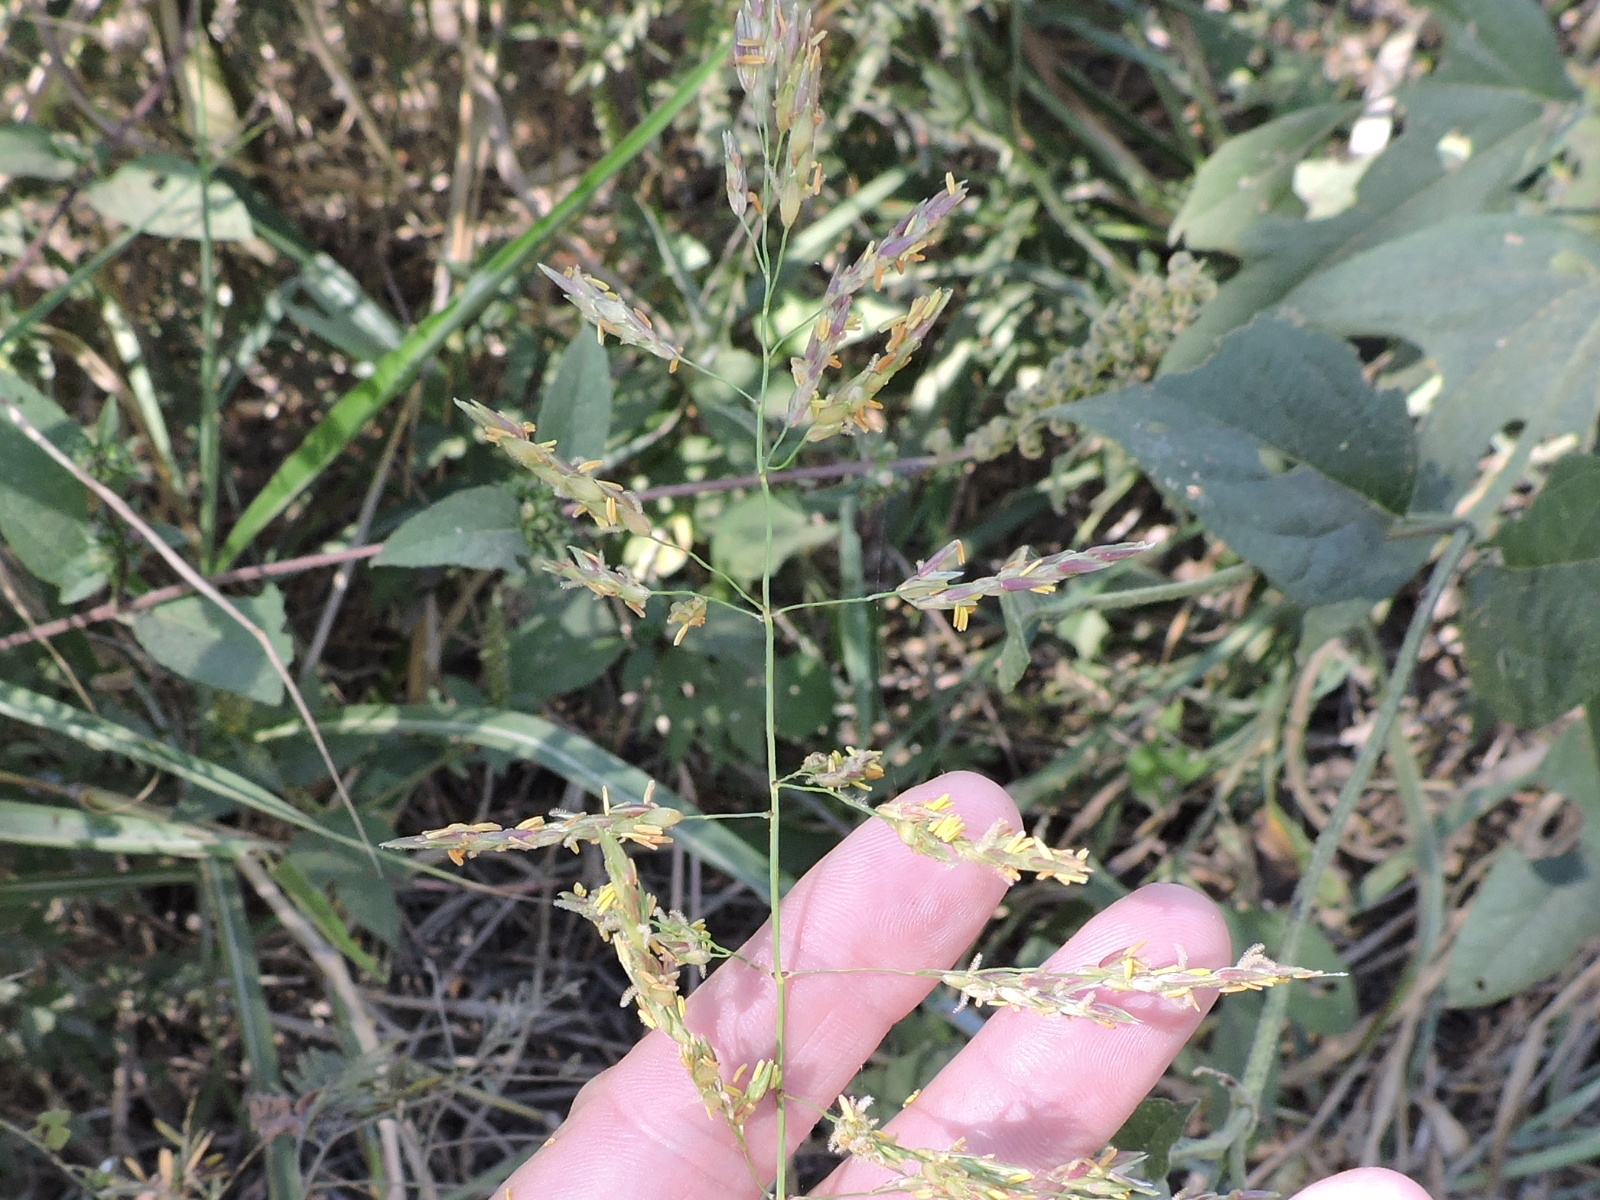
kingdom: Plantae
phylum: Tracheophyta
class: Liliopsida
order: Poales
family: Poaceae
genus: Sorghum
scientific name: Sorghum halepense
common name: Johnson-grass
